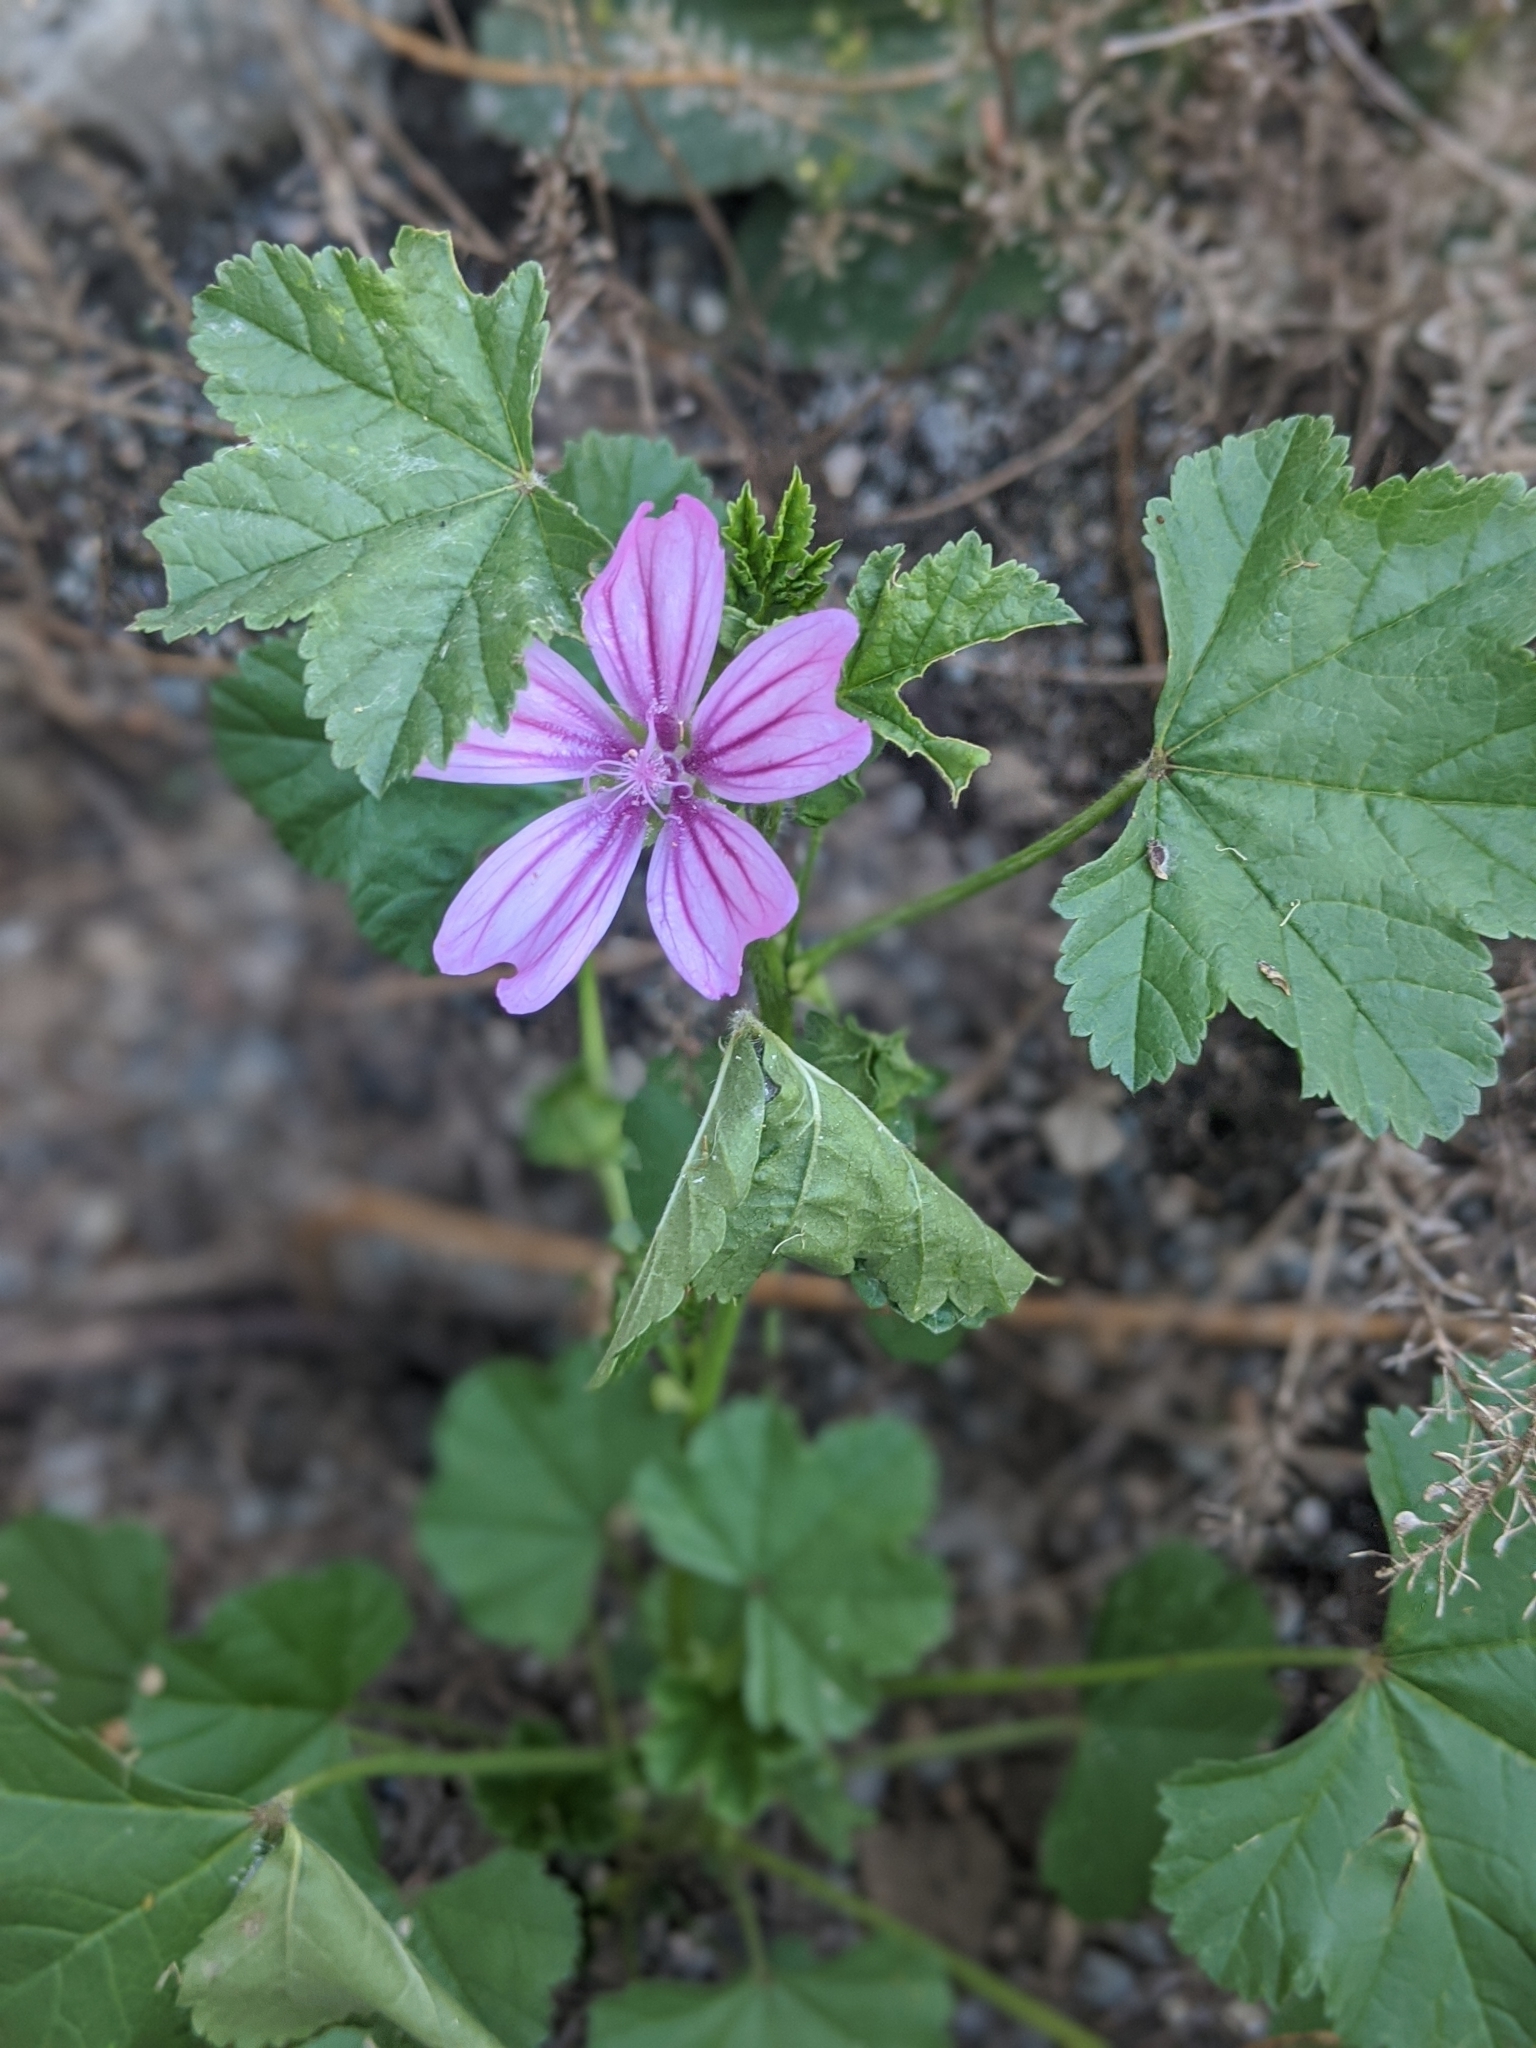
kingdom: Plantae
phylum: Tracheophyta
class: Magnoliopsida
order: Malvales
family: Malvaceae
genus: Malva
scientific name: Malva sylvestris
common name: Common mallow
